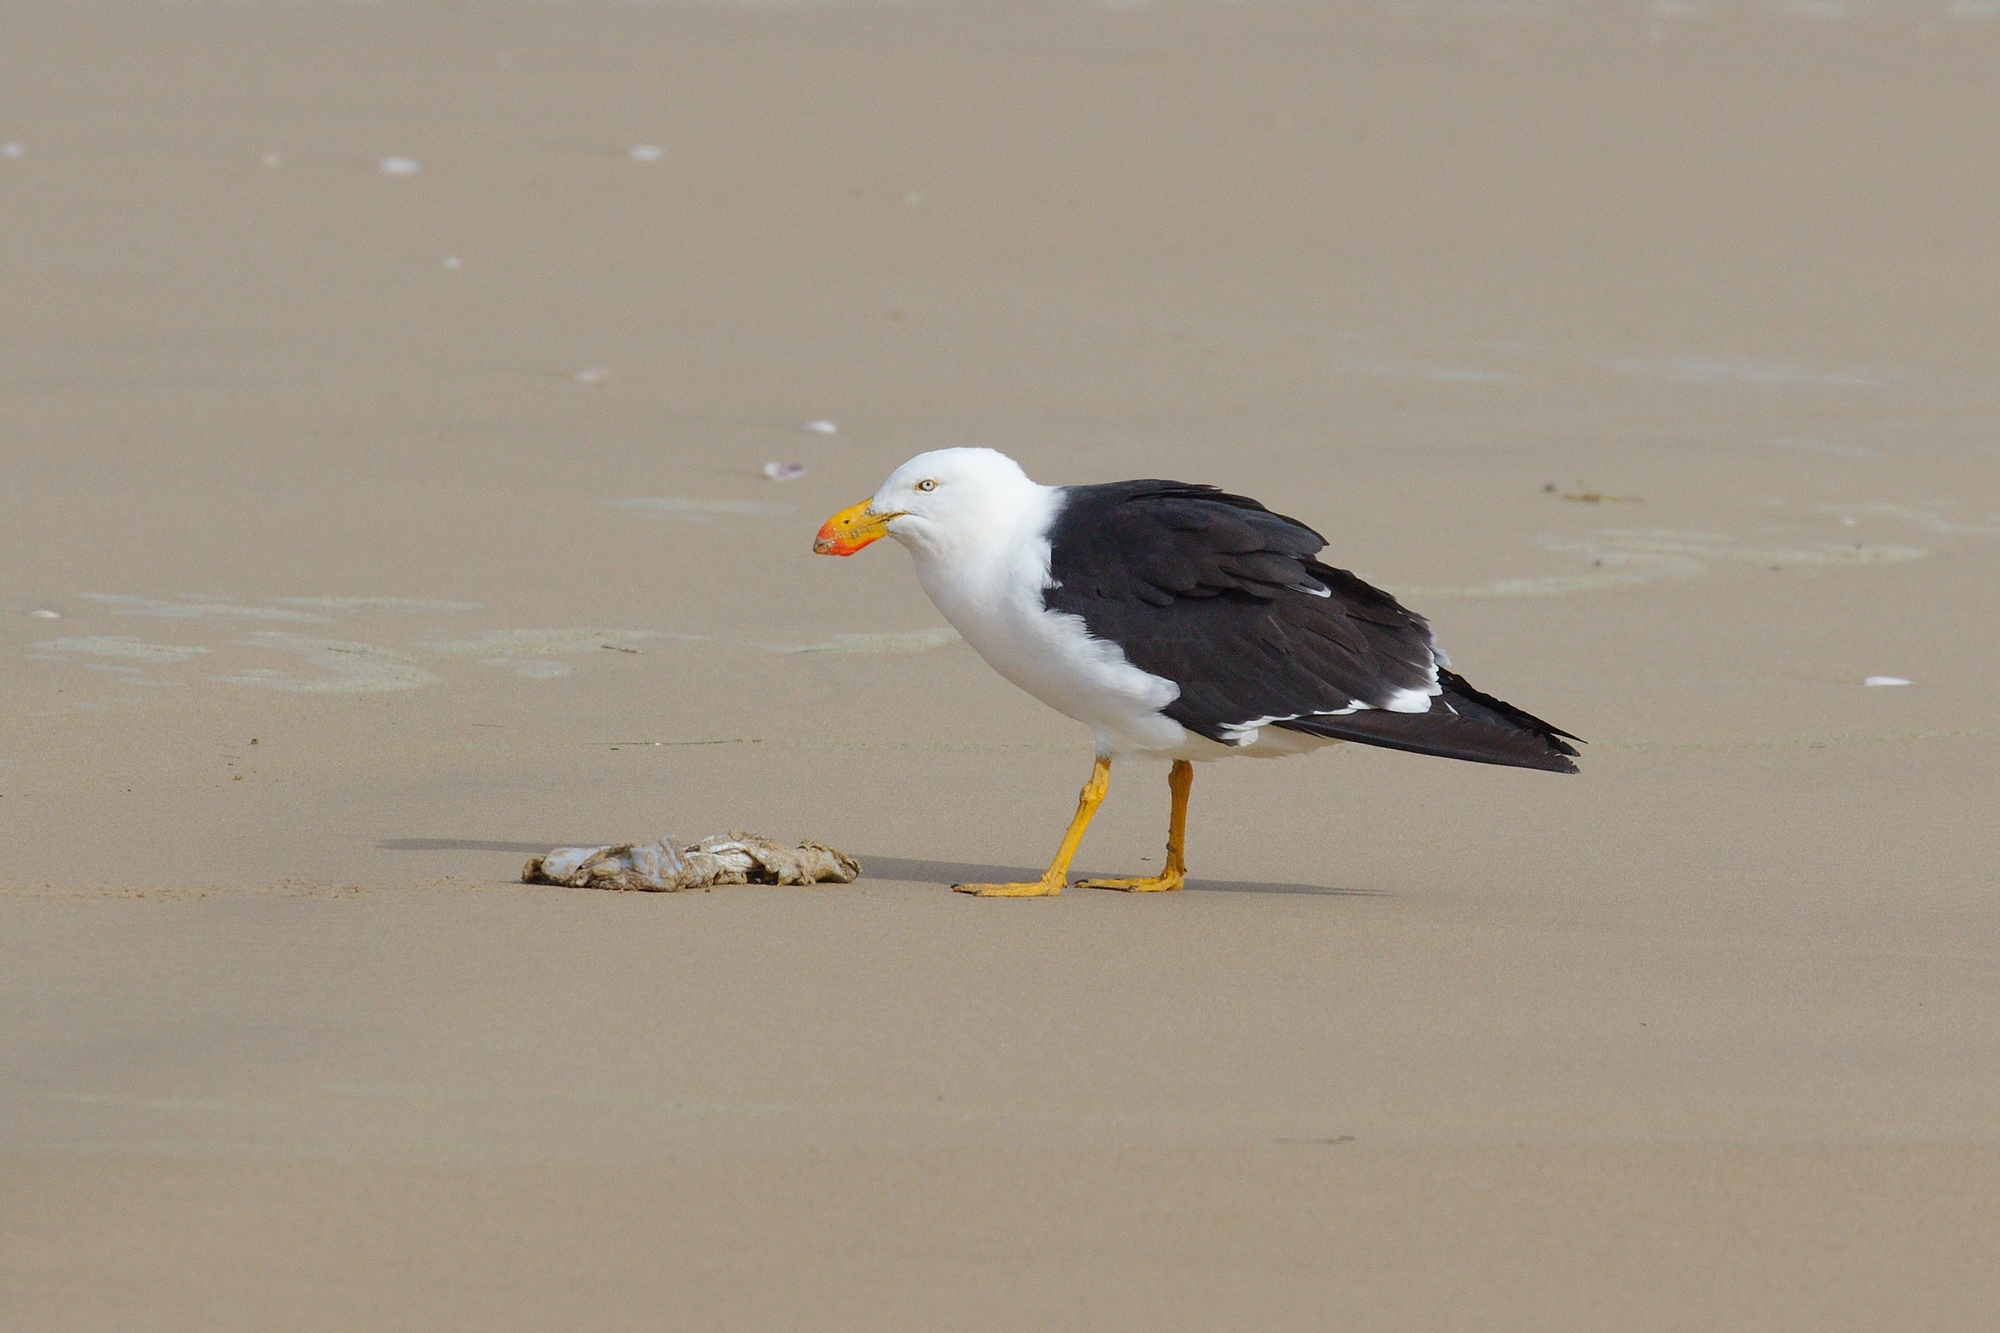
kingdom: Animalia
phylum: Chordata
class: Aves
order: Charadriiformes
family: Laridae
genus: Larus
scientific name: Larus pacificus
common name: Pacific gull
